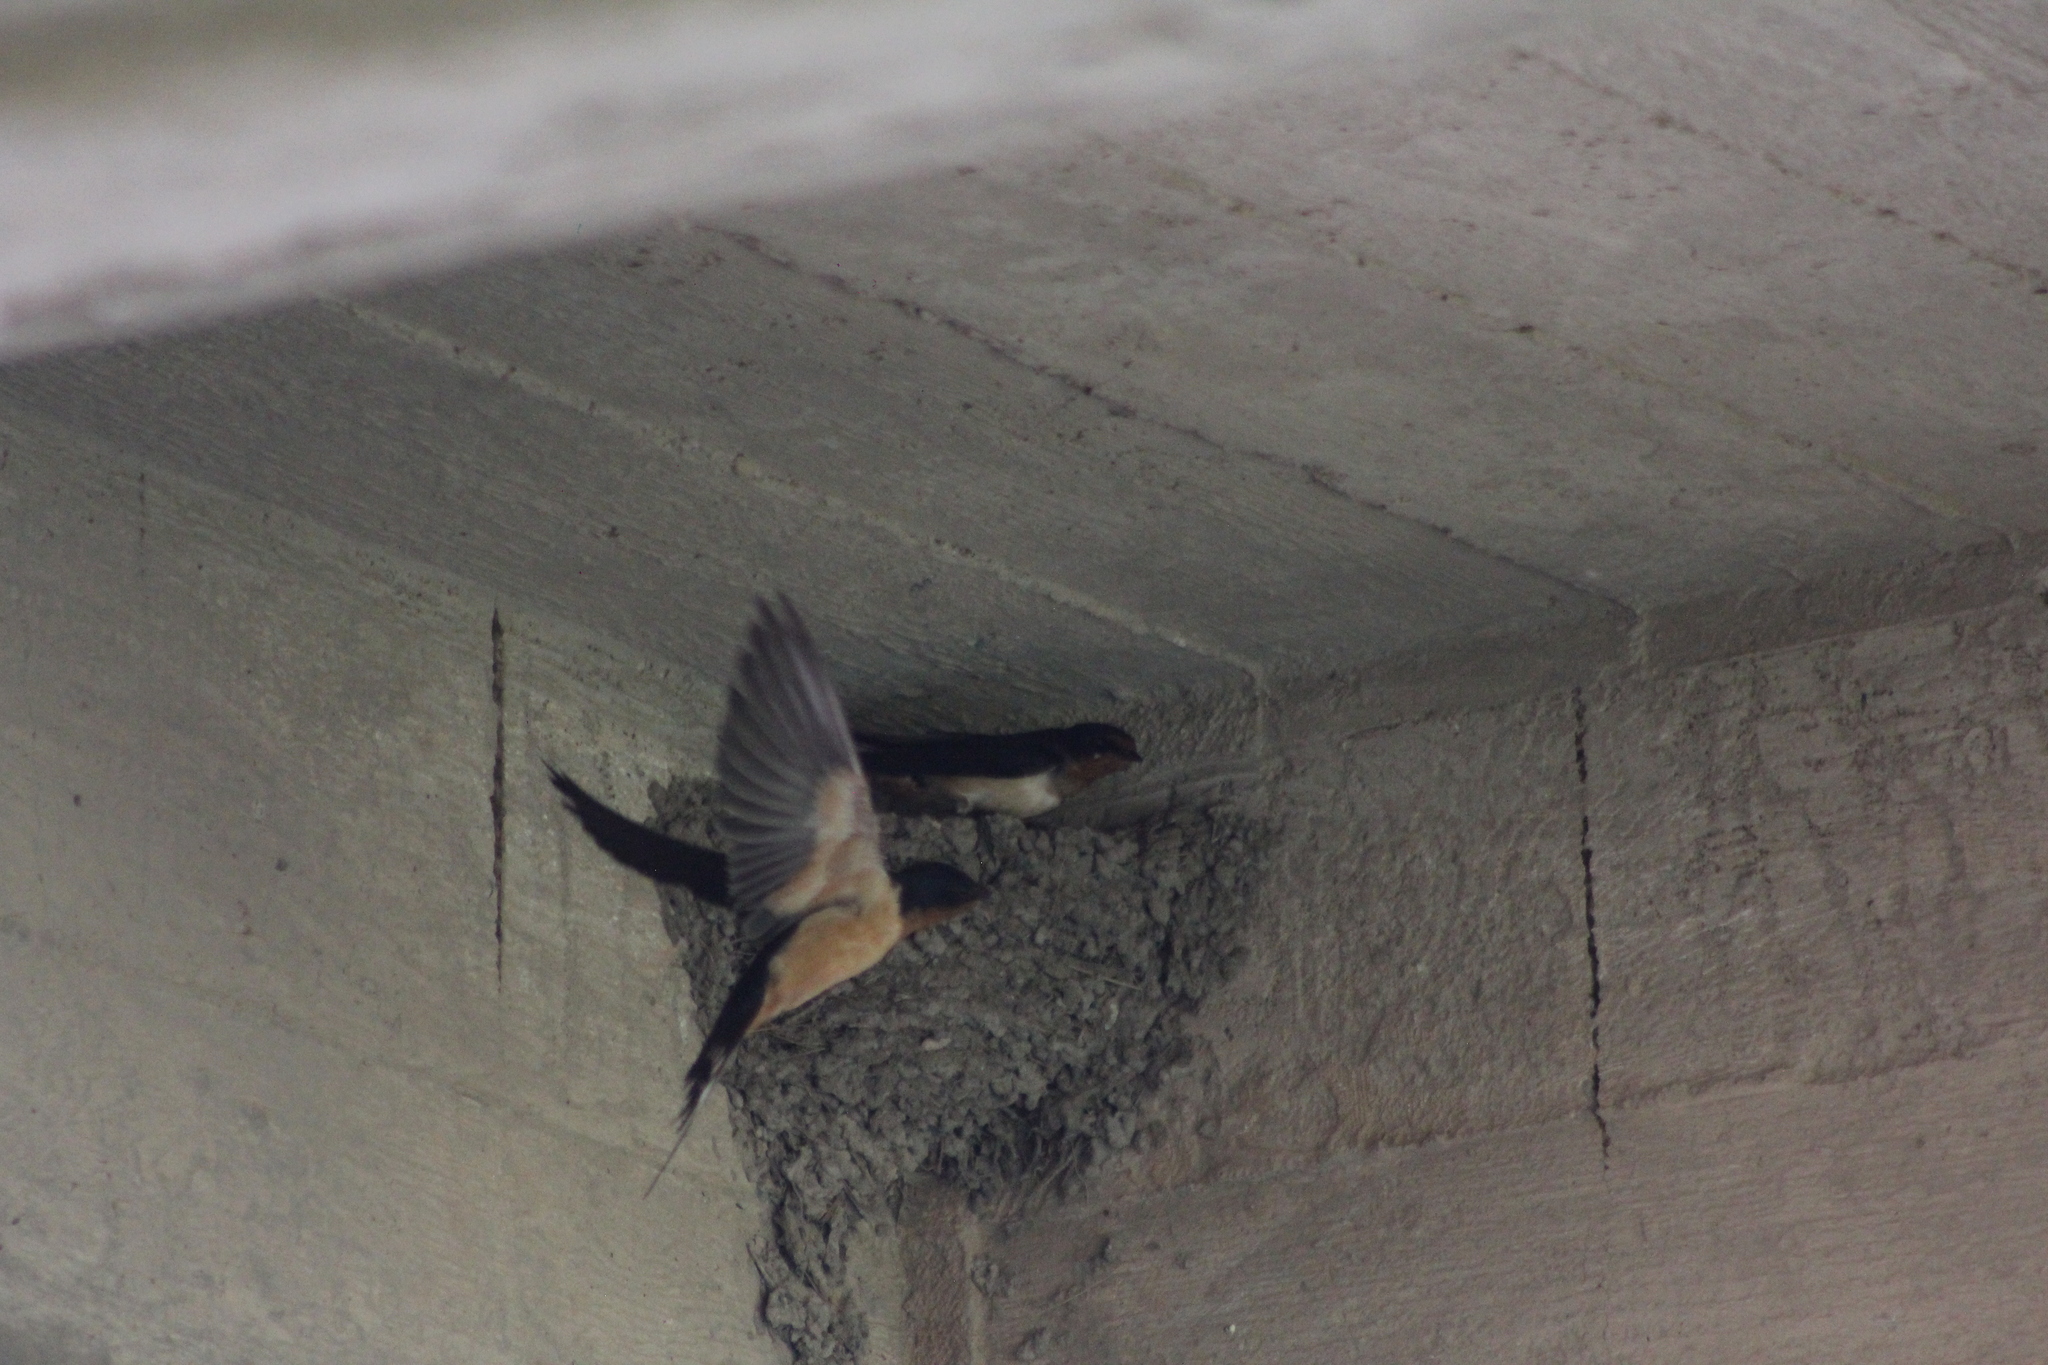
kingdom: Animalia
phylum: Chordata
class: Aves
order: Passeriformes
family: Hirundinidae
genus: Hirundo
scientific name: Hirundo rustica
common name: Barn swallow
